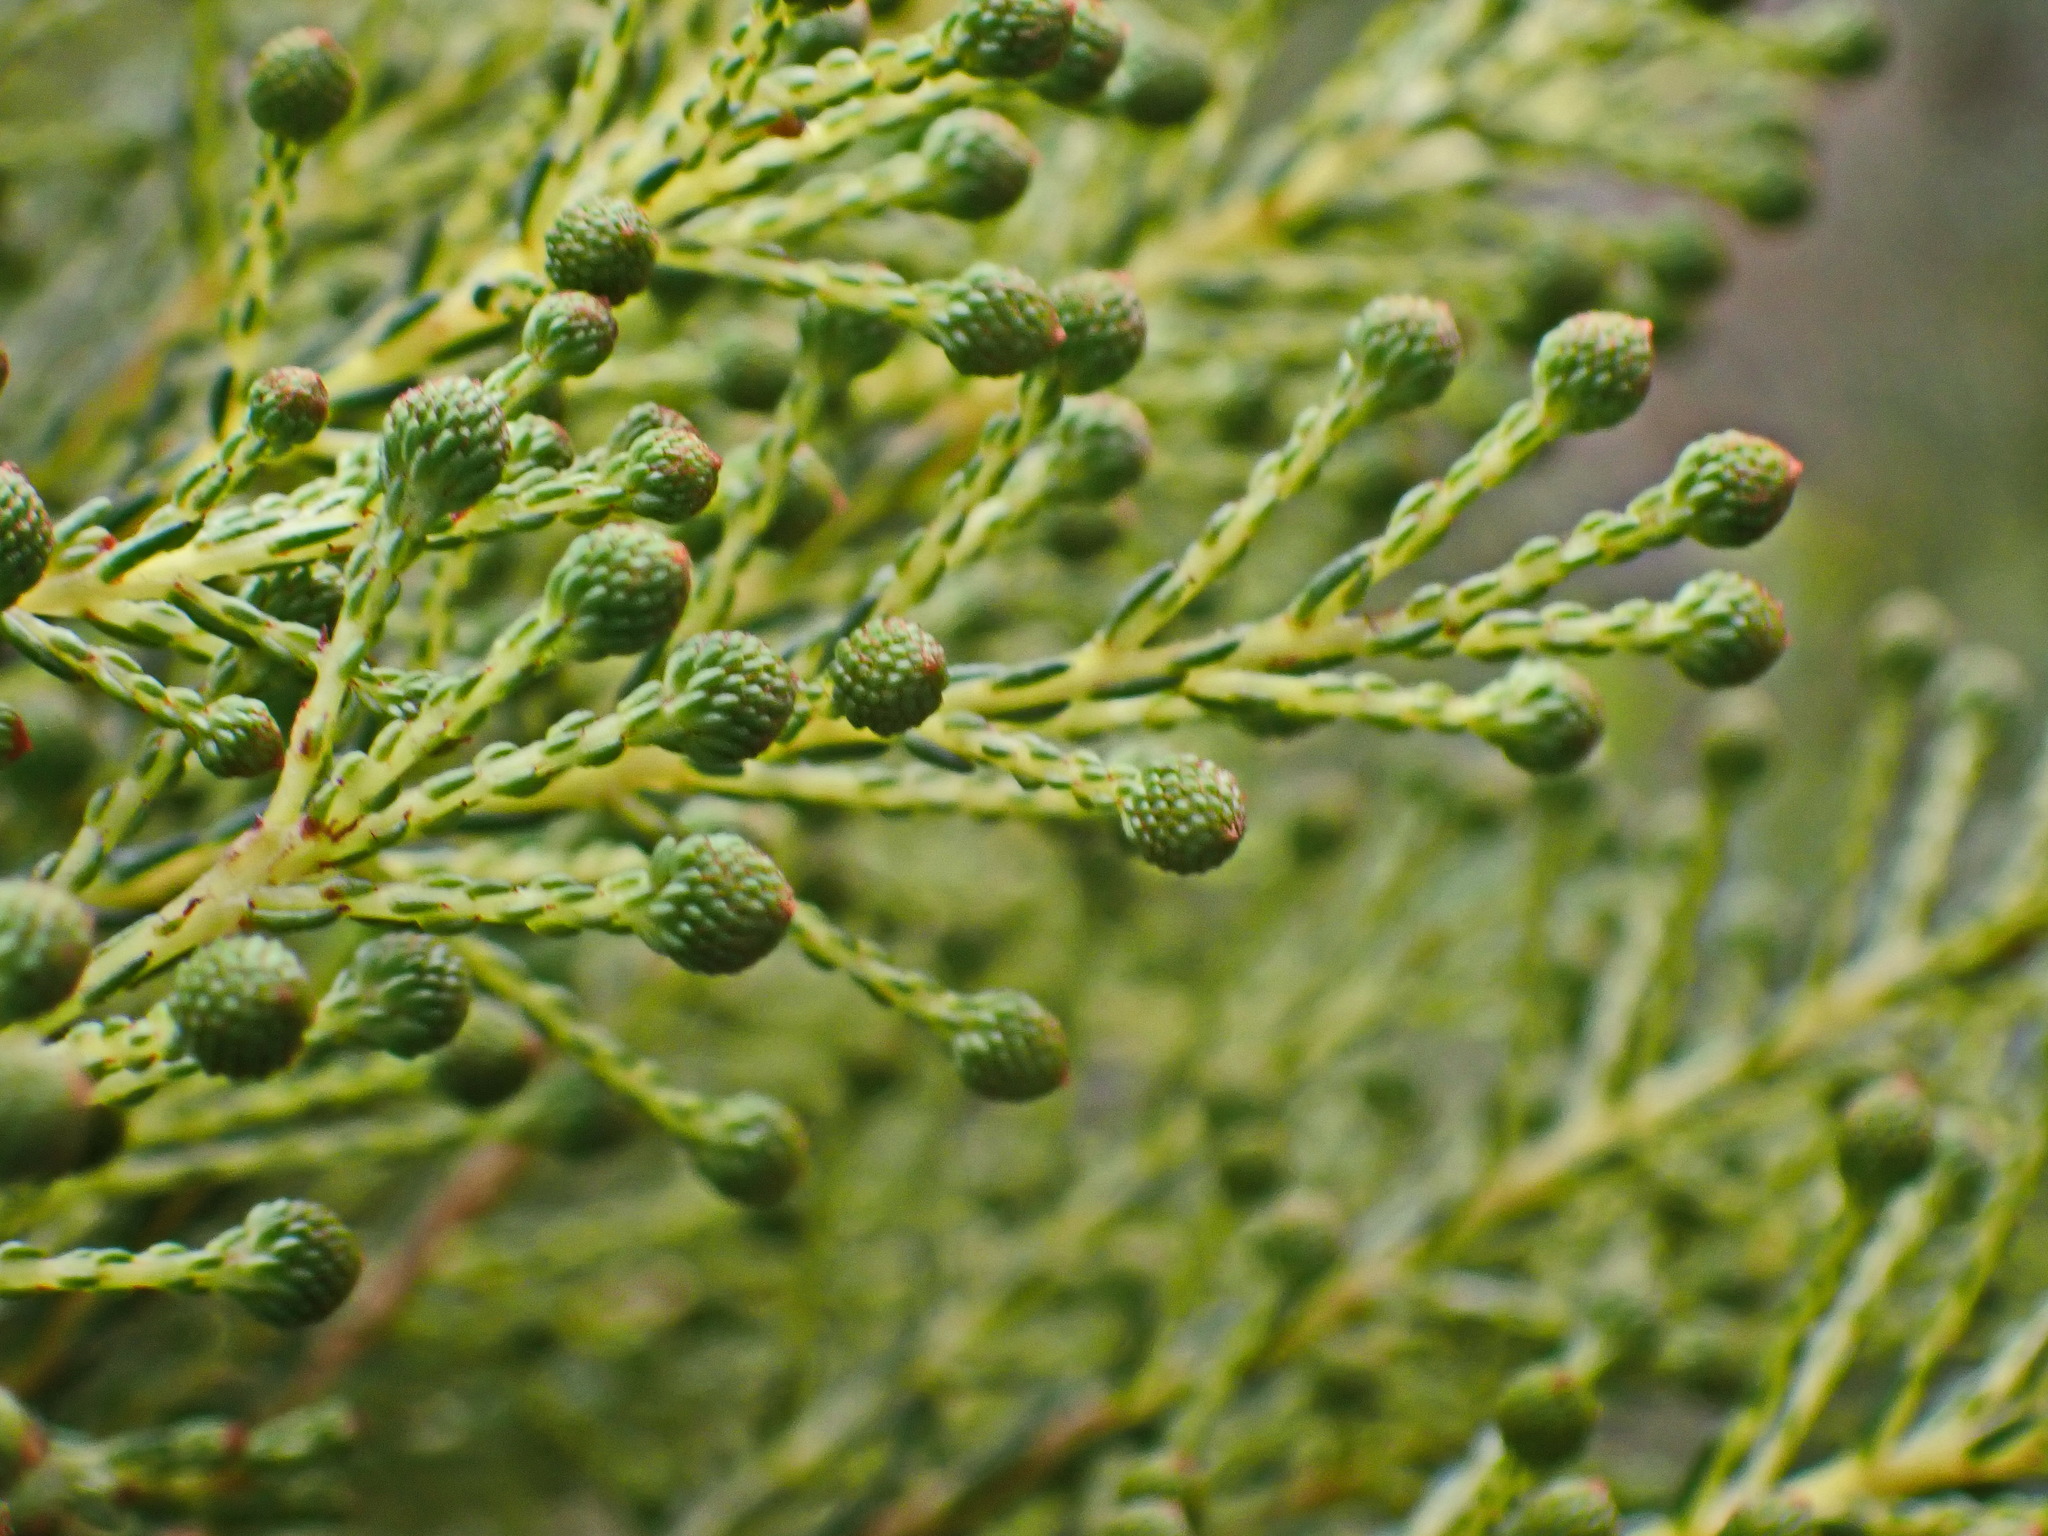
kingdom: Plantae
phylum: Tracheophyta
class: Magnoliopsida
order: Bruniales
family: Bruniaceae
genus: Berzelia
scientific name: Berzelia intermedia
